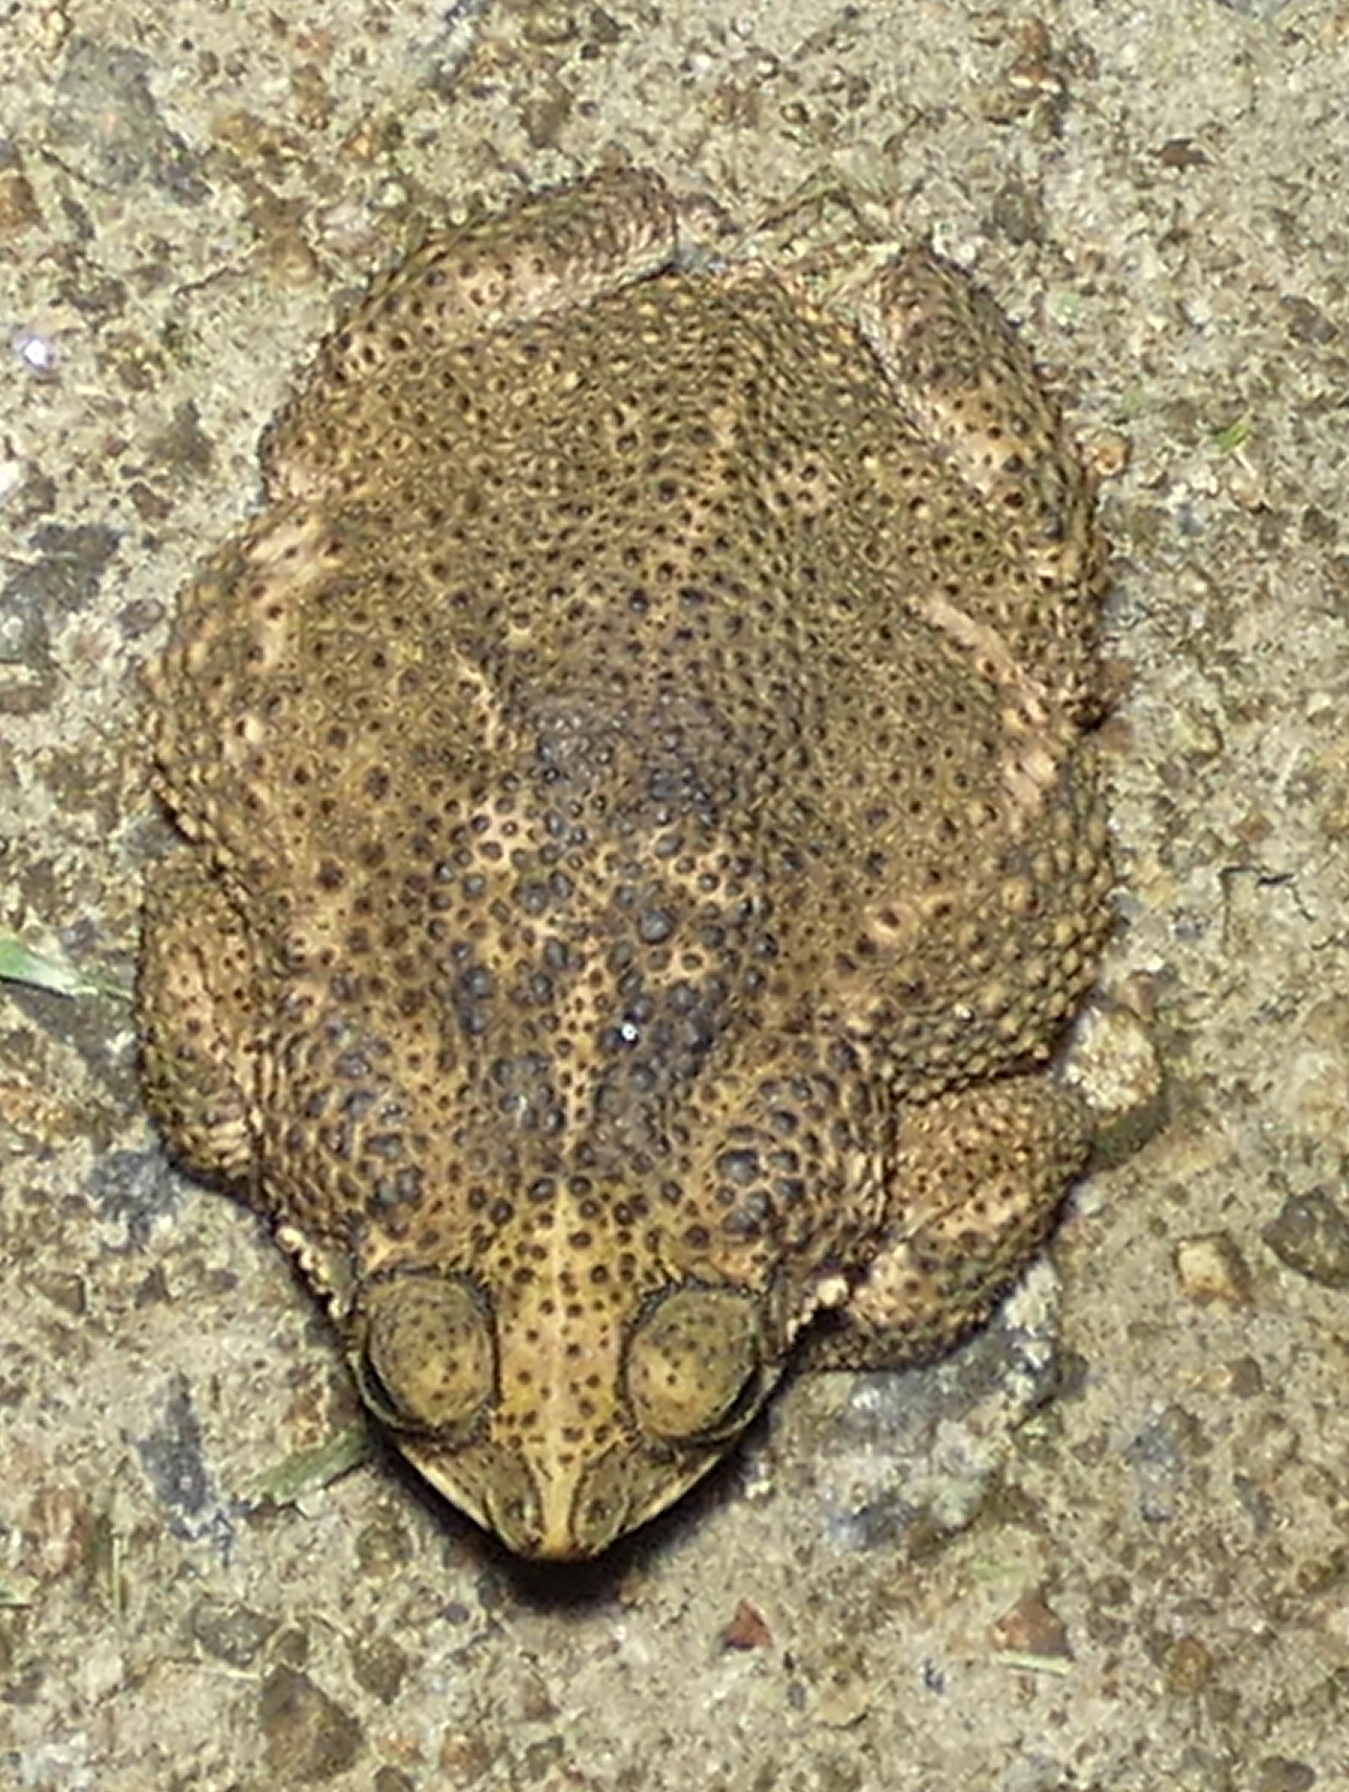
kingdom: Animalia
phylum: Chordata
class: Amphibia
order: Anura
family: Bufonidae
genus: Rhinella
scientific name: Rhinella granulosa
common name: Common lesser toad
